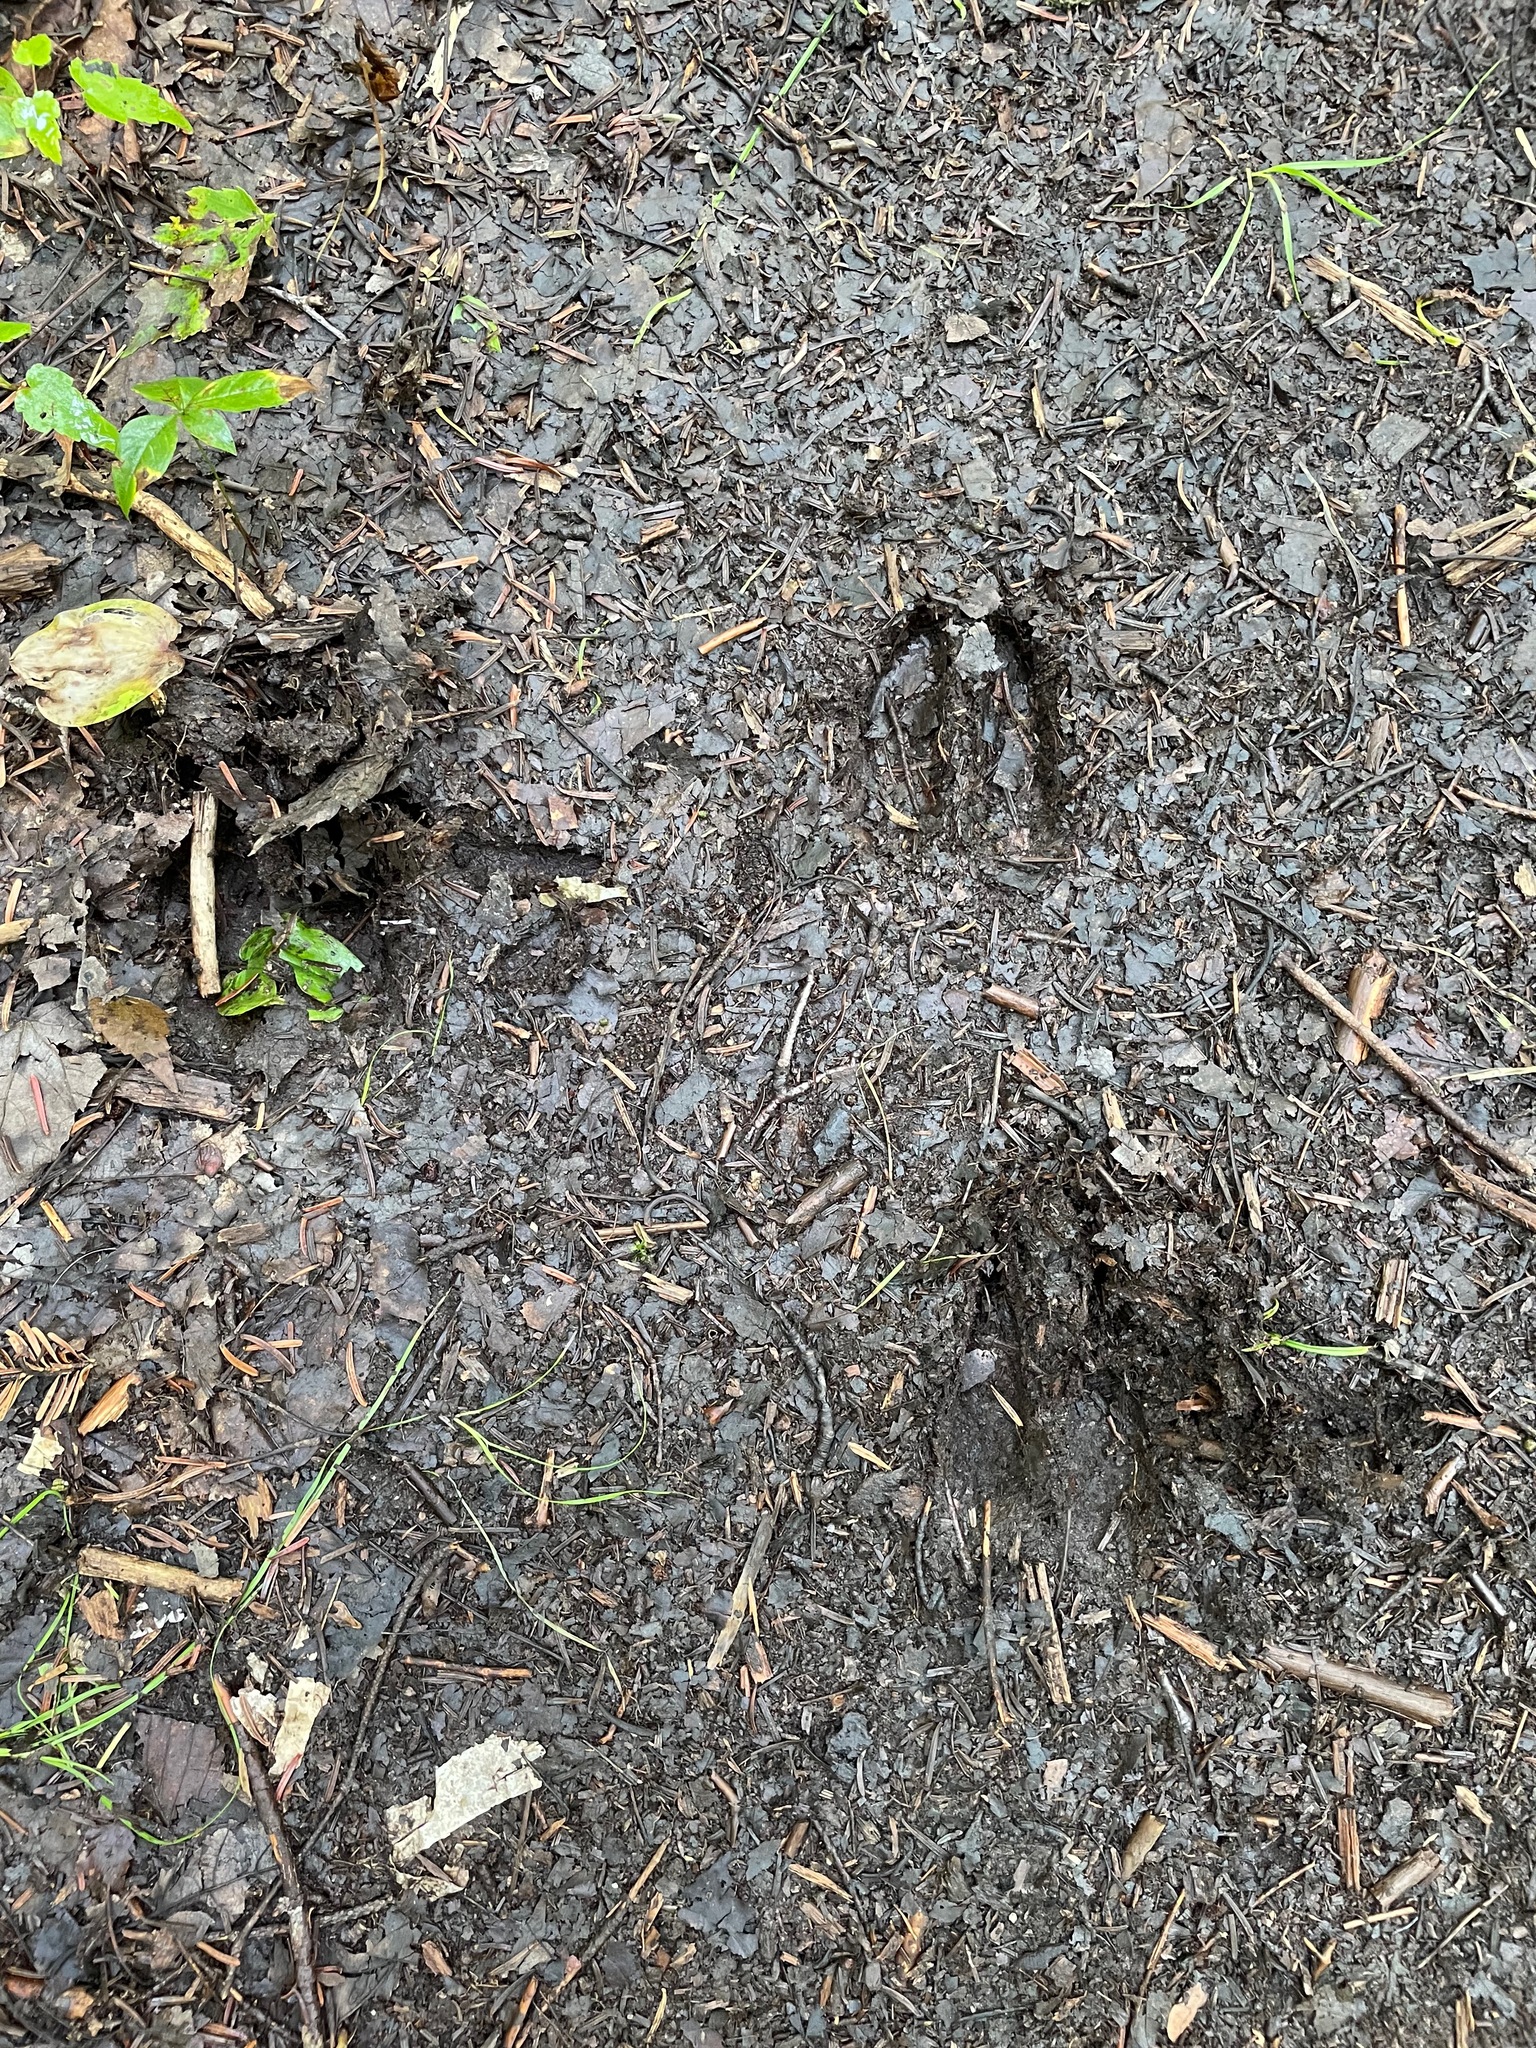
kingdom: Animalia
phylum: Chordata
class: Mammalia
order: Artiodactyla
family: Cervidae
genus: Odocoileus
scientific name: Odocoileus virginianus
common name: White-tailed deer
